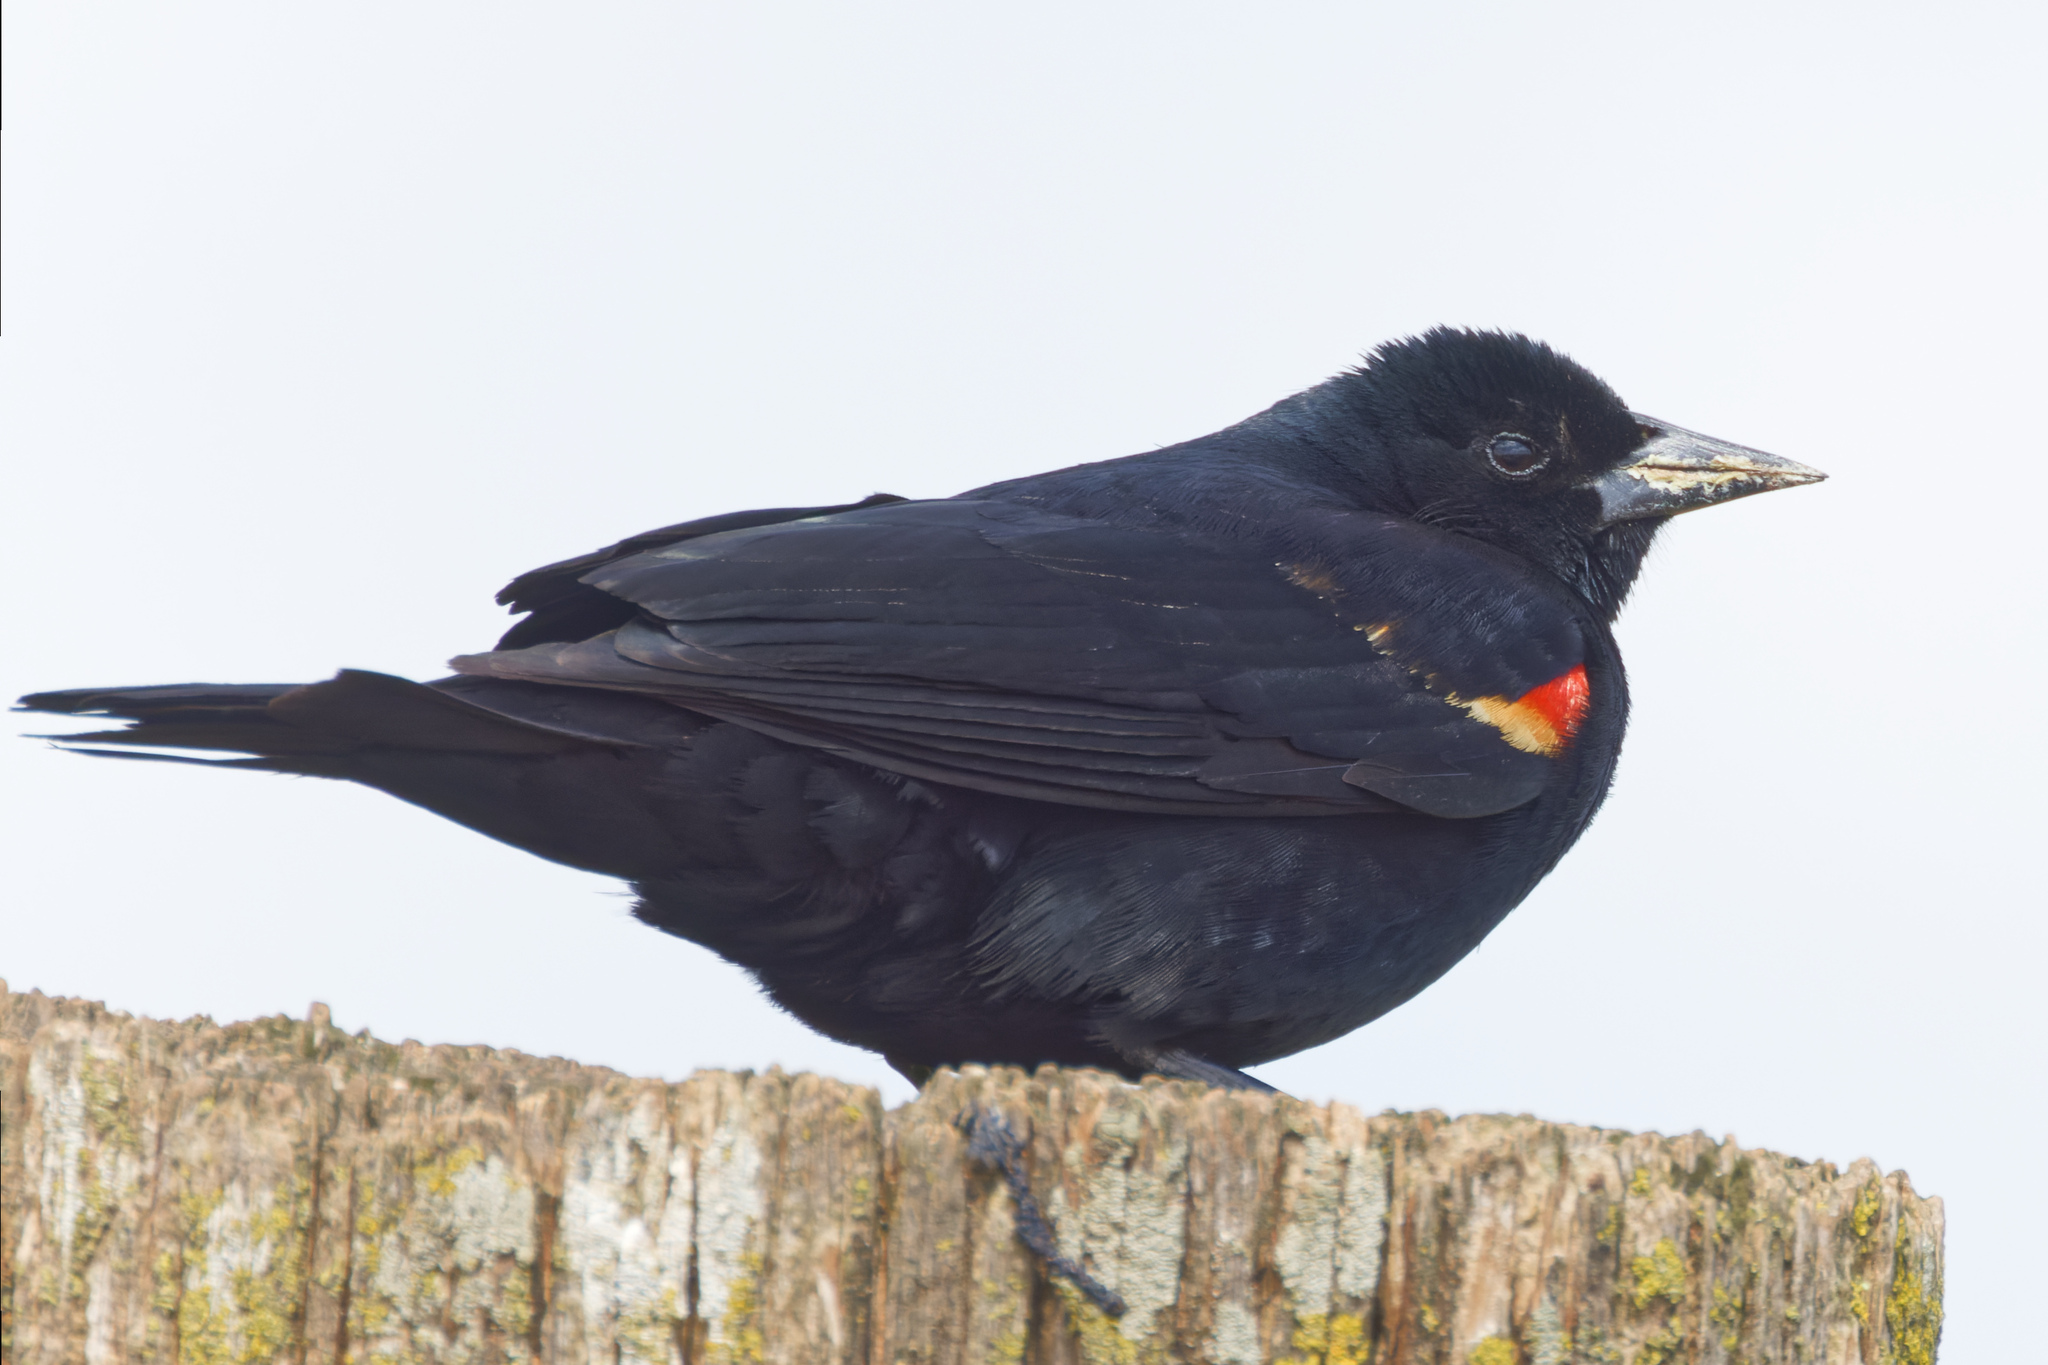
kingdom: Animalia
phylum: Chordata
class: Aves
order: Passeriformes
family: Icteridae
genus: Agelaius
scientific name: Agelaius phoeniceus
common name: Red-winged blackbird
